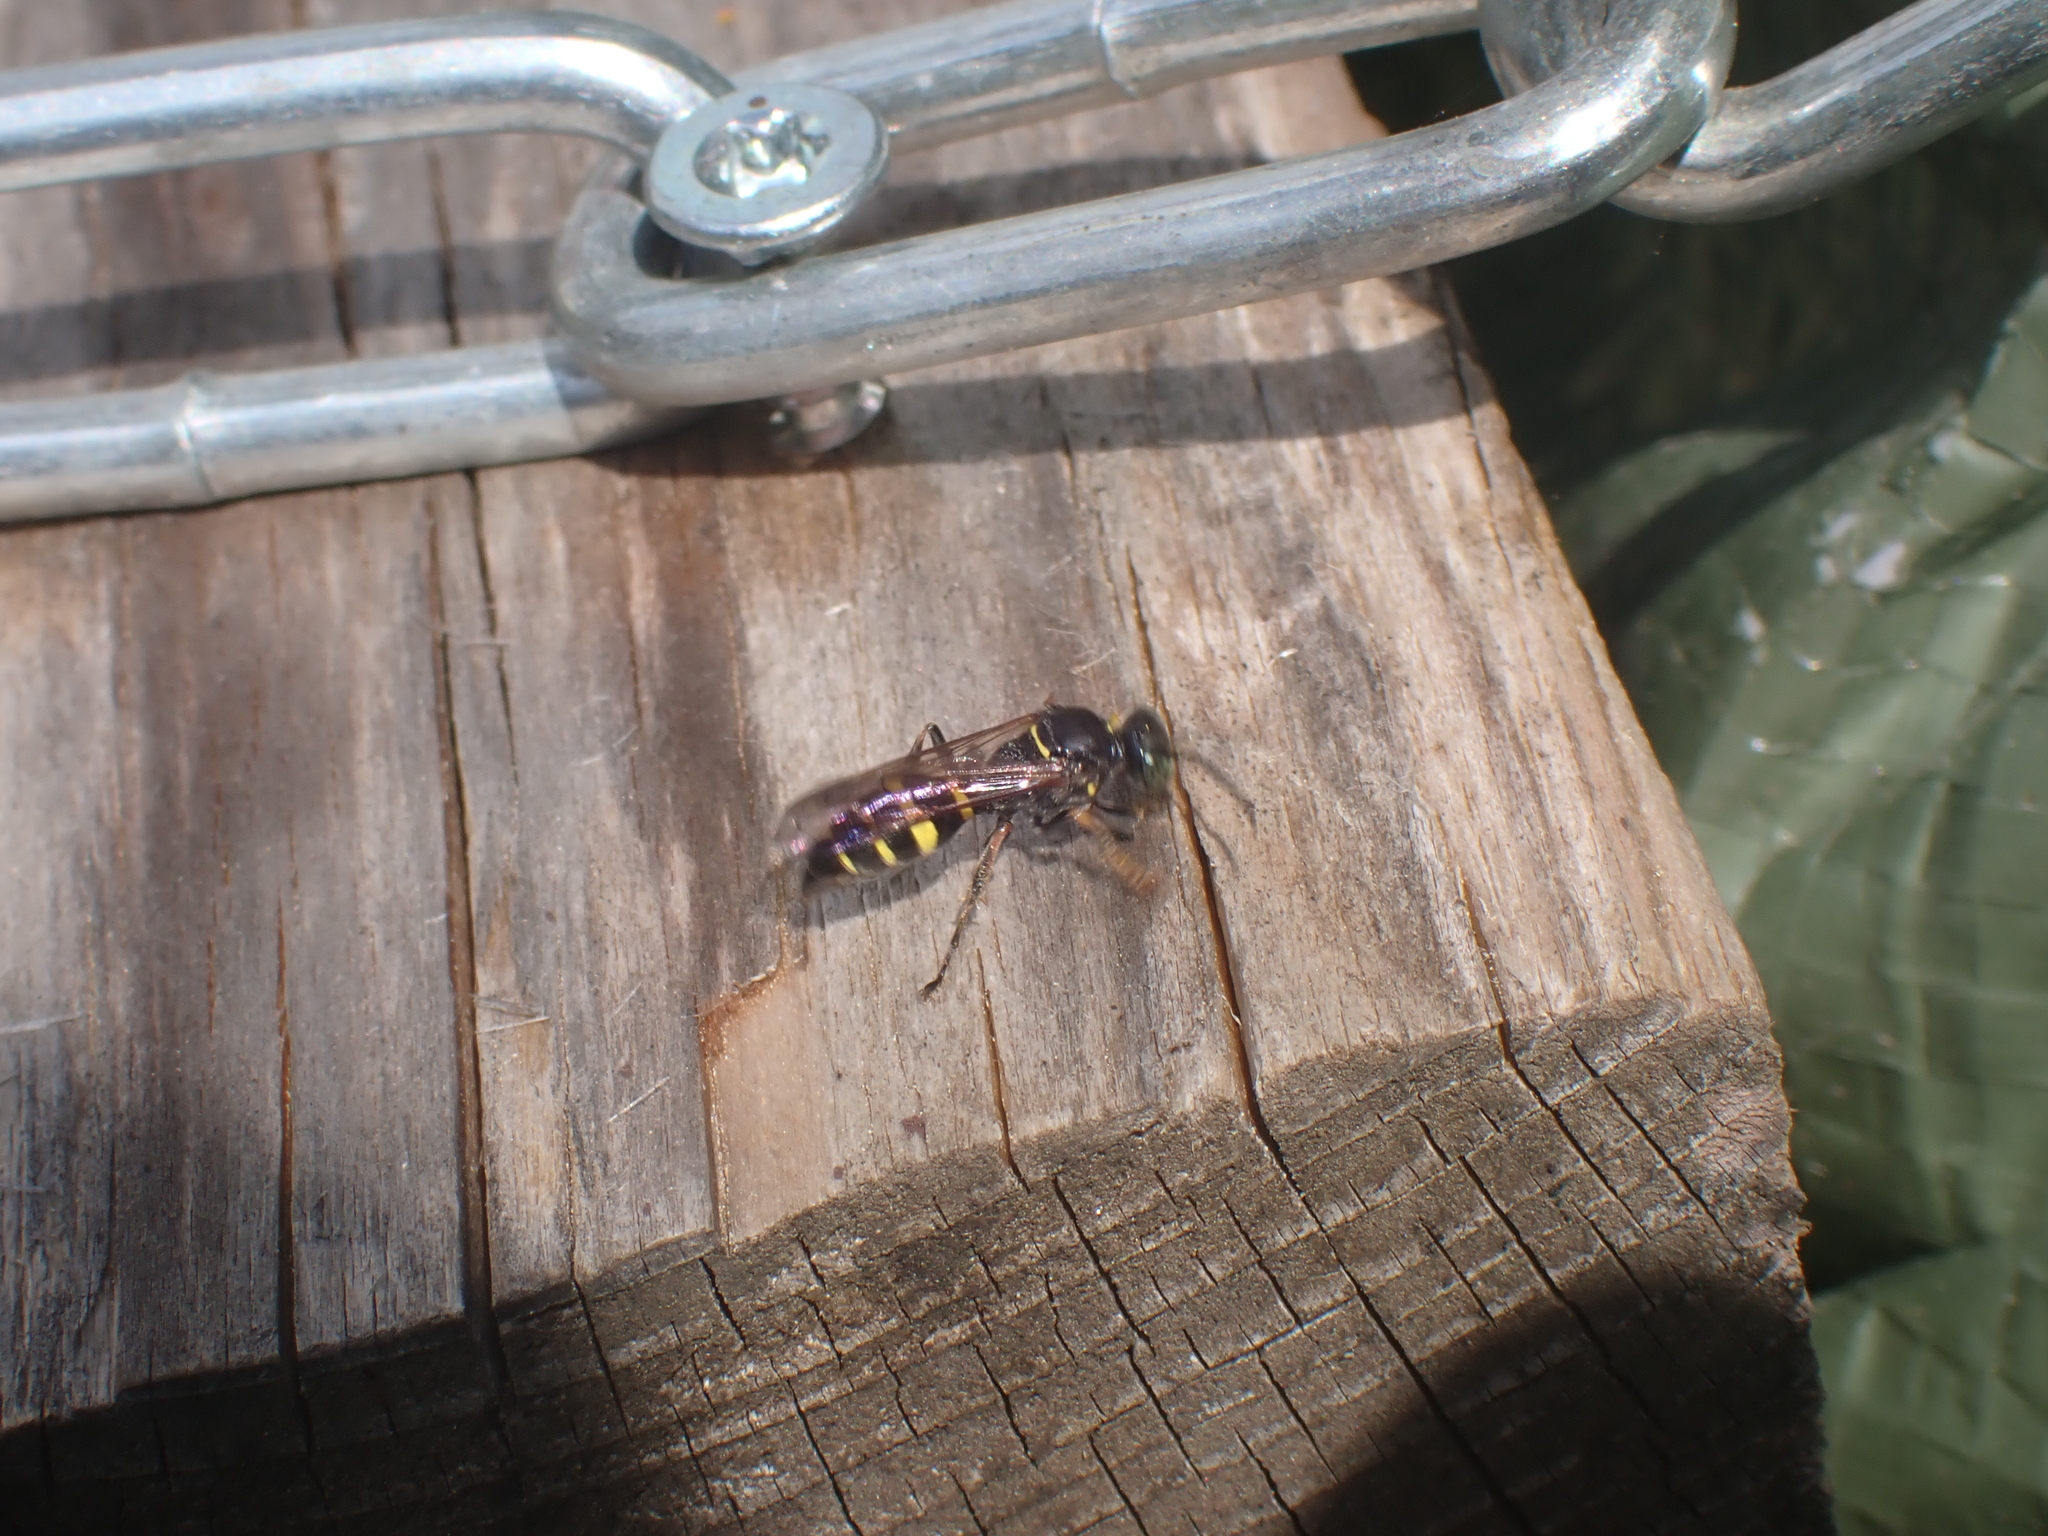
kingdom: Animalia
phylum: Arthropoda
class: Insecta
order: Hymenoptera
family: Crabronidae
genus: Gorytes
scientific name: Gorytes
